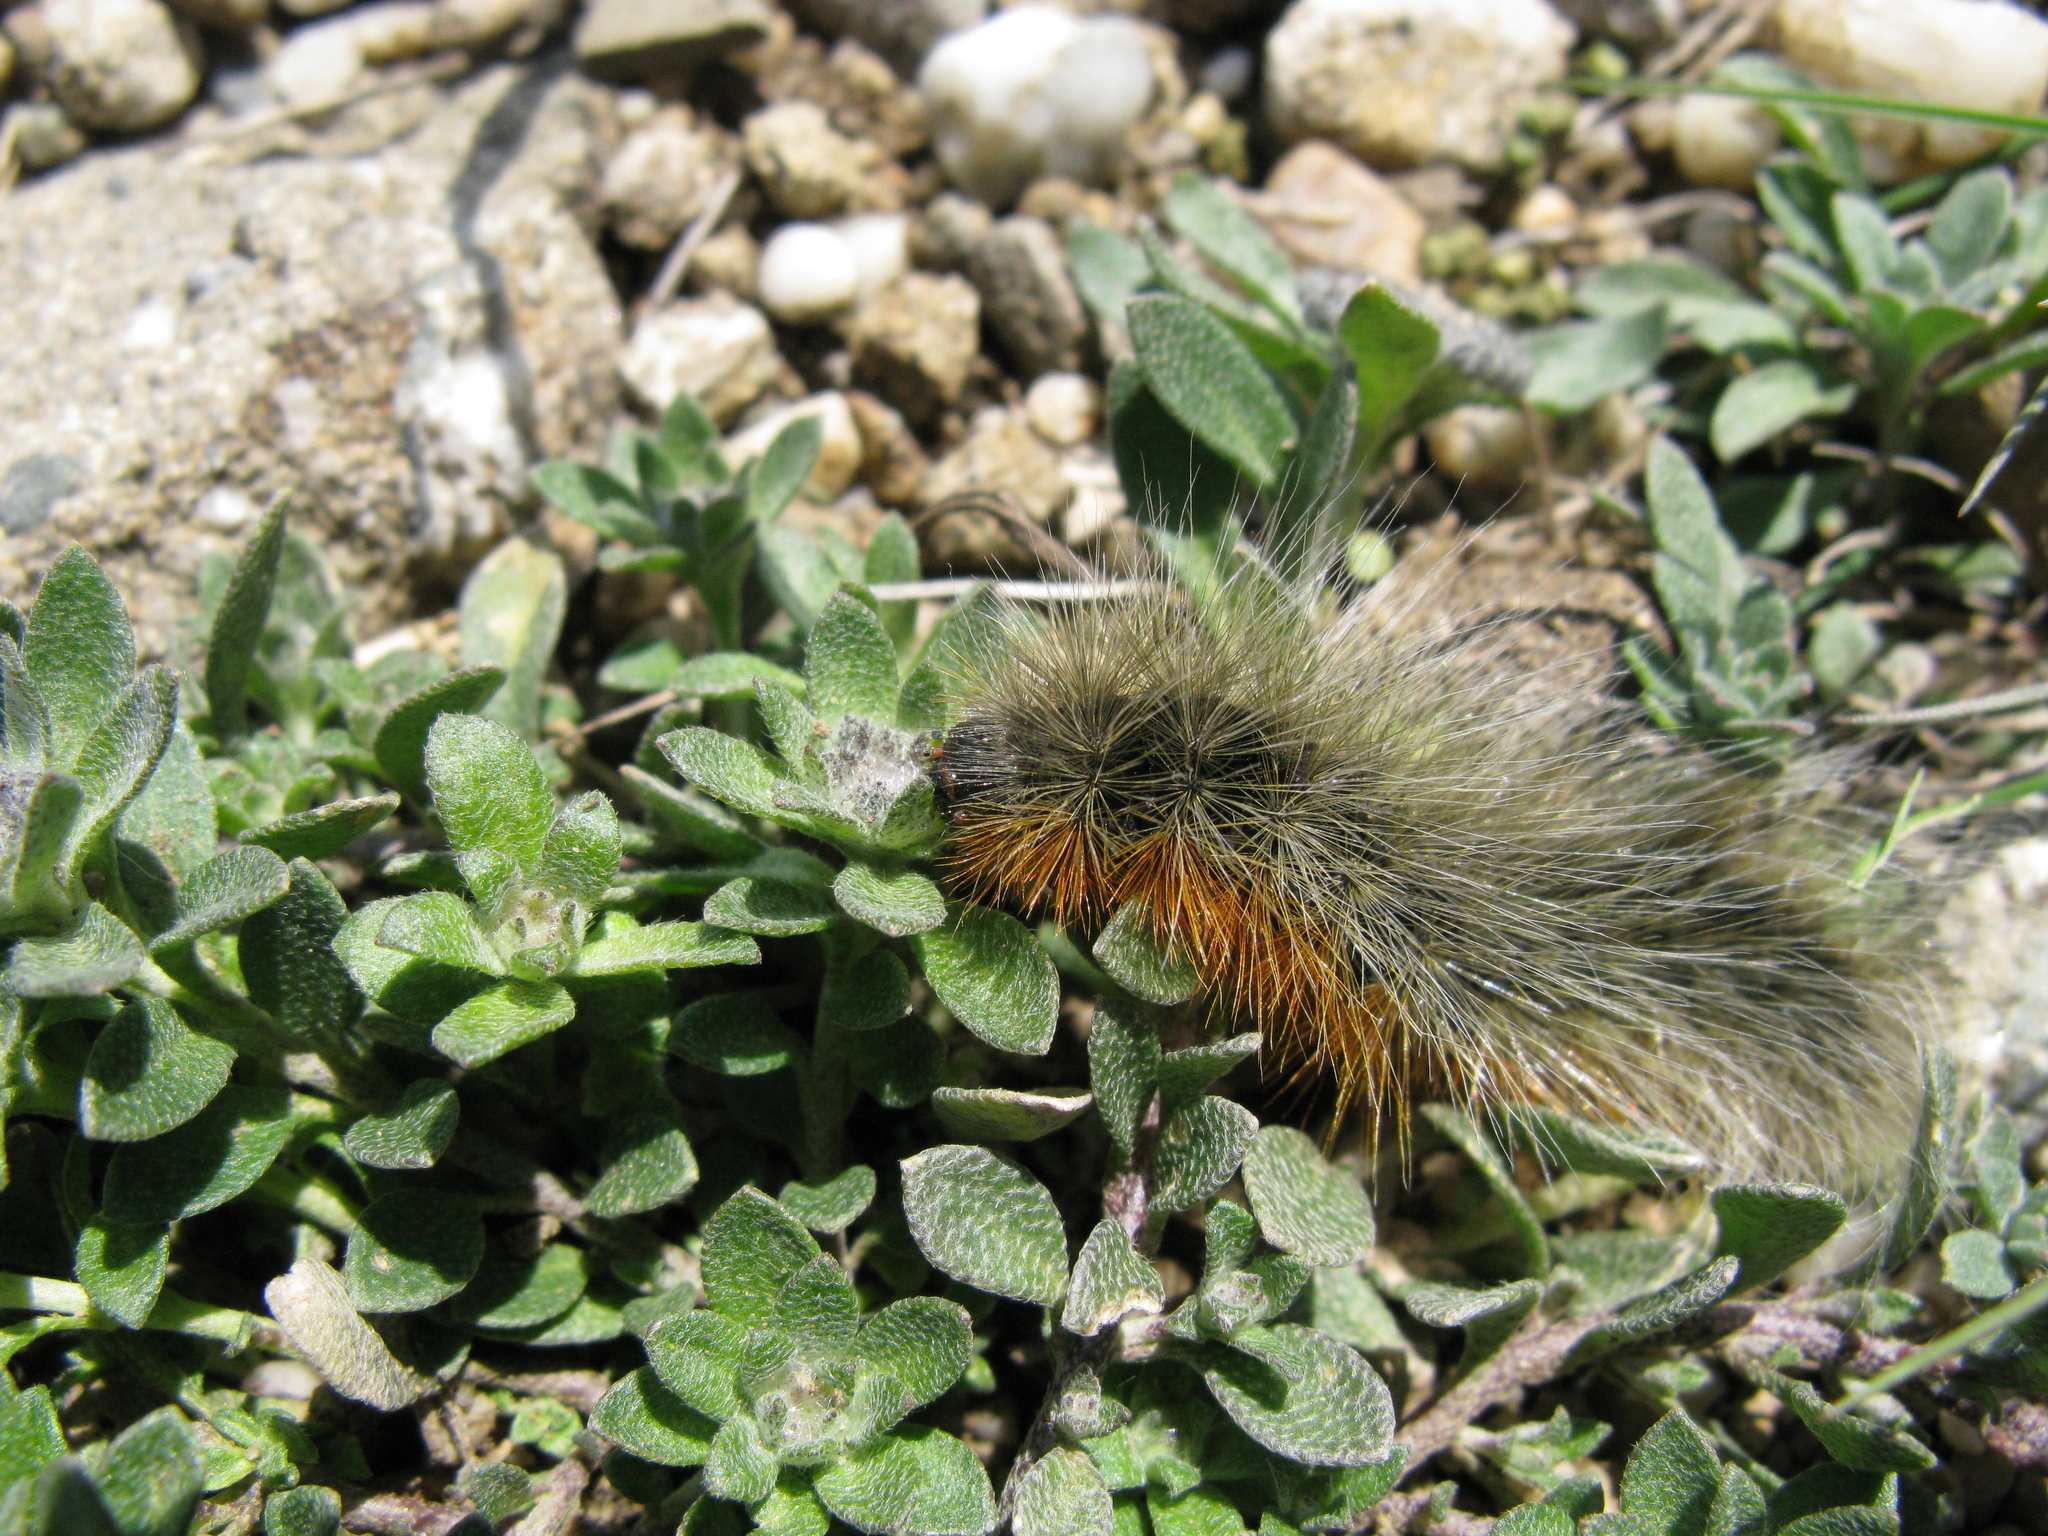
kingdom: Animalia
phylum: Arthropoda
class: Insecta
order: Lepidoptera
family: Erebidae
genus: Eucharia
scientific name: Eucharia festiva
